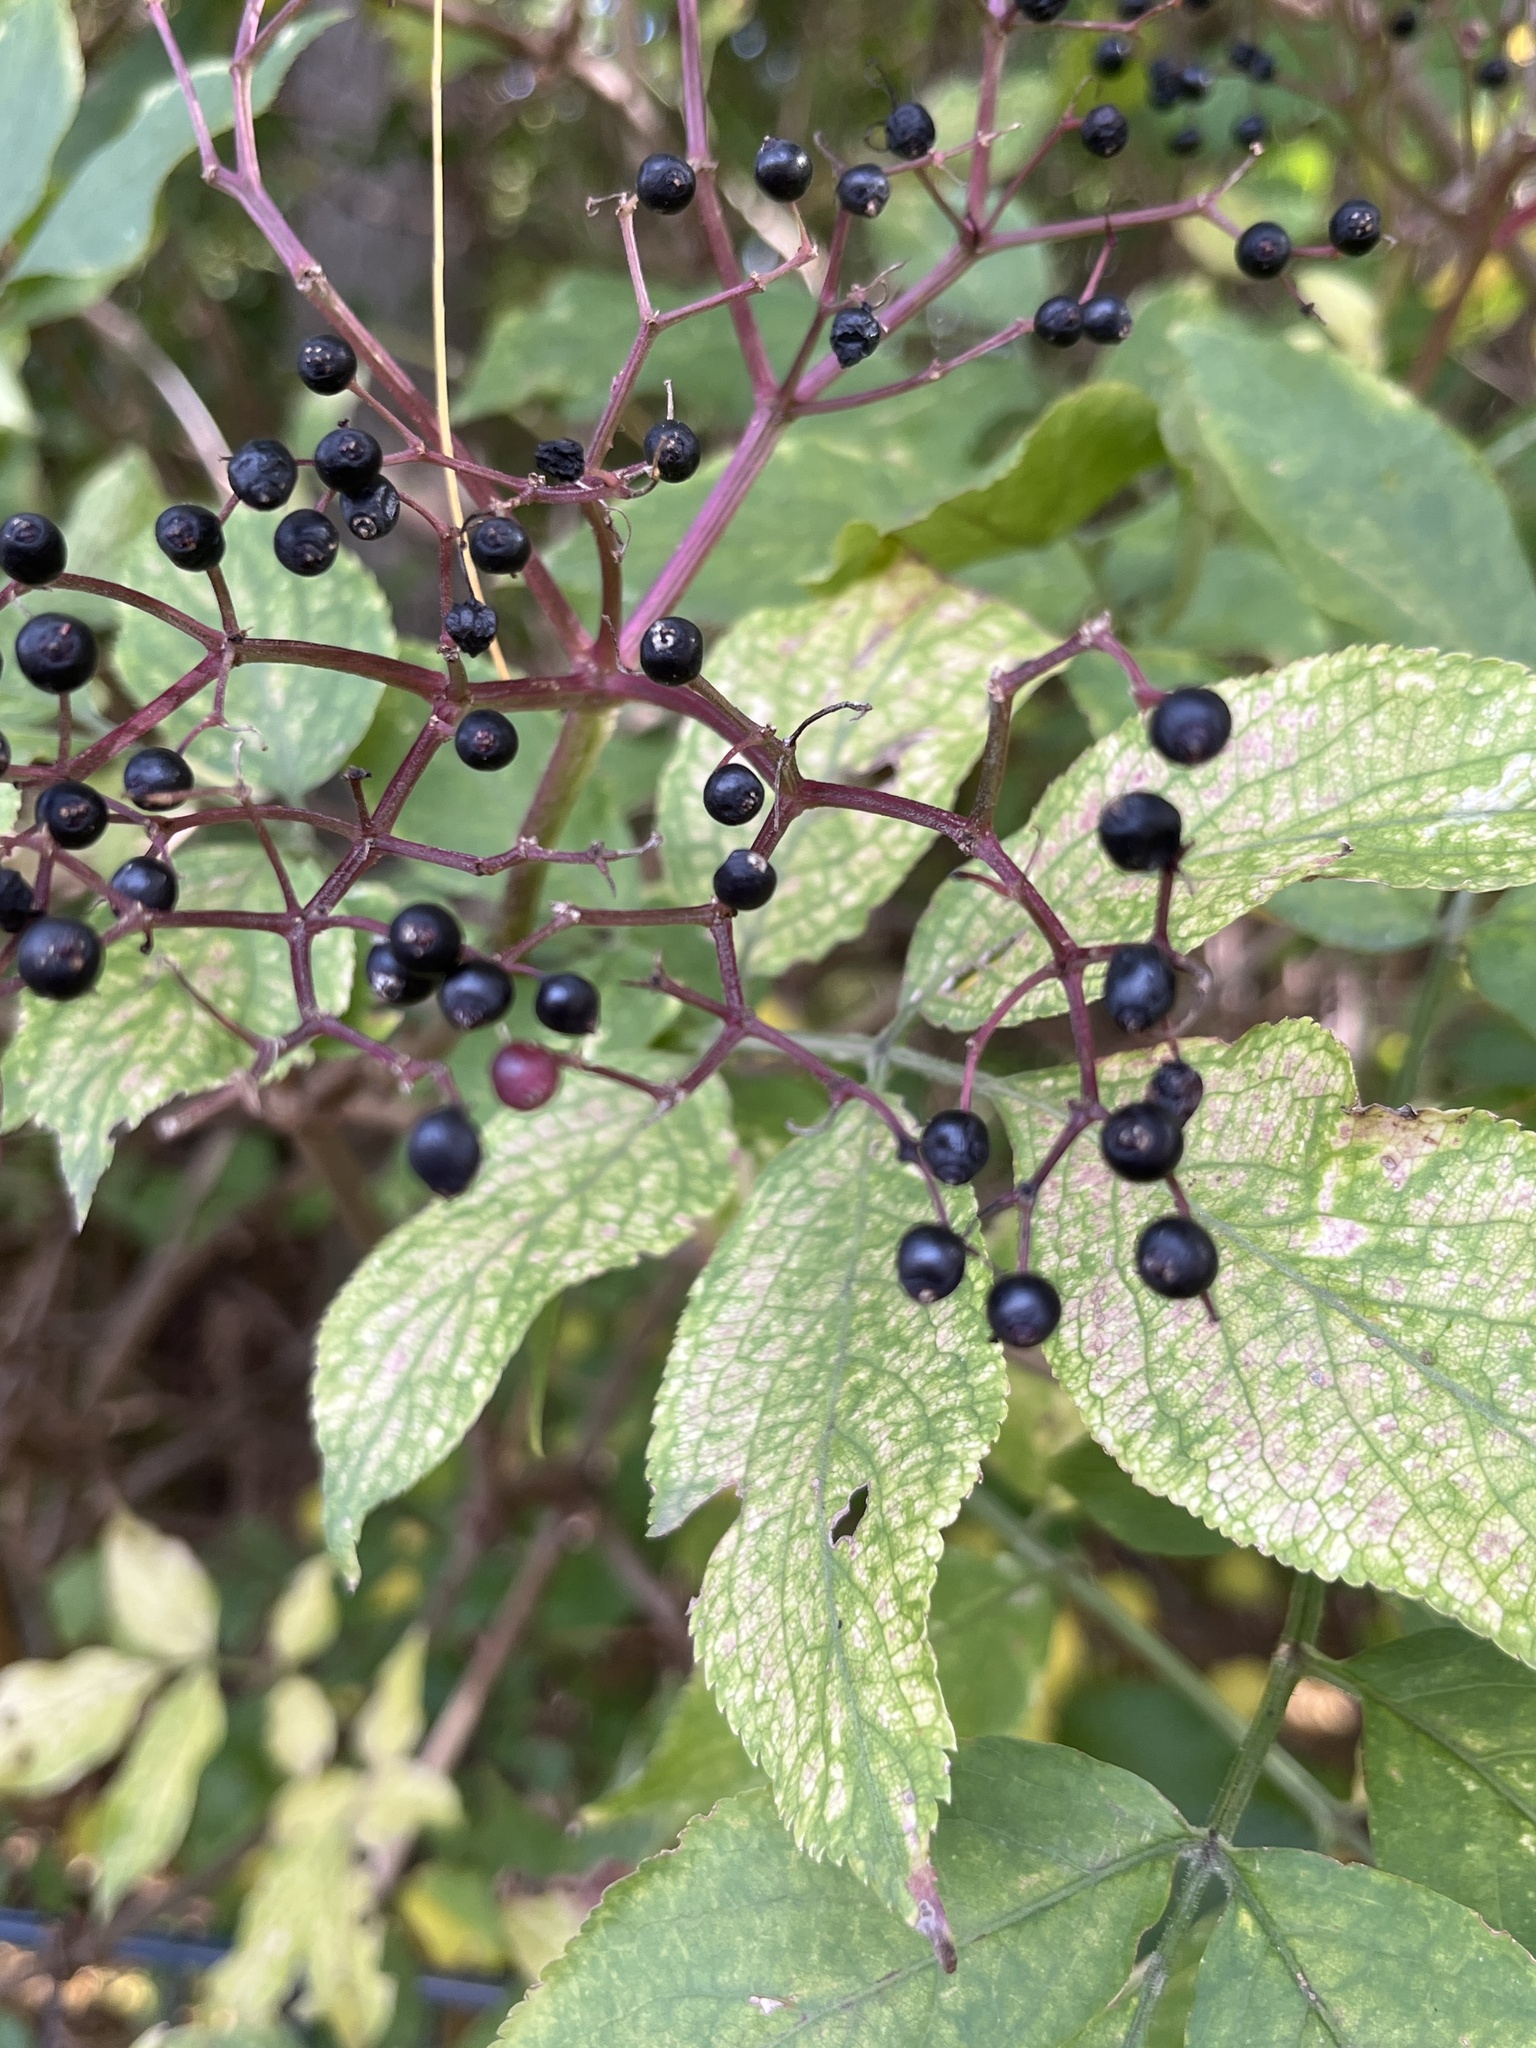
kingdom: Plantae
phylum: Tracheophyta
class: Magnoliopsida
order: Dipsacales
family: Viburnaceae
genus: Sambucus
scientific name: Sambucus nigra
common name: Elder
